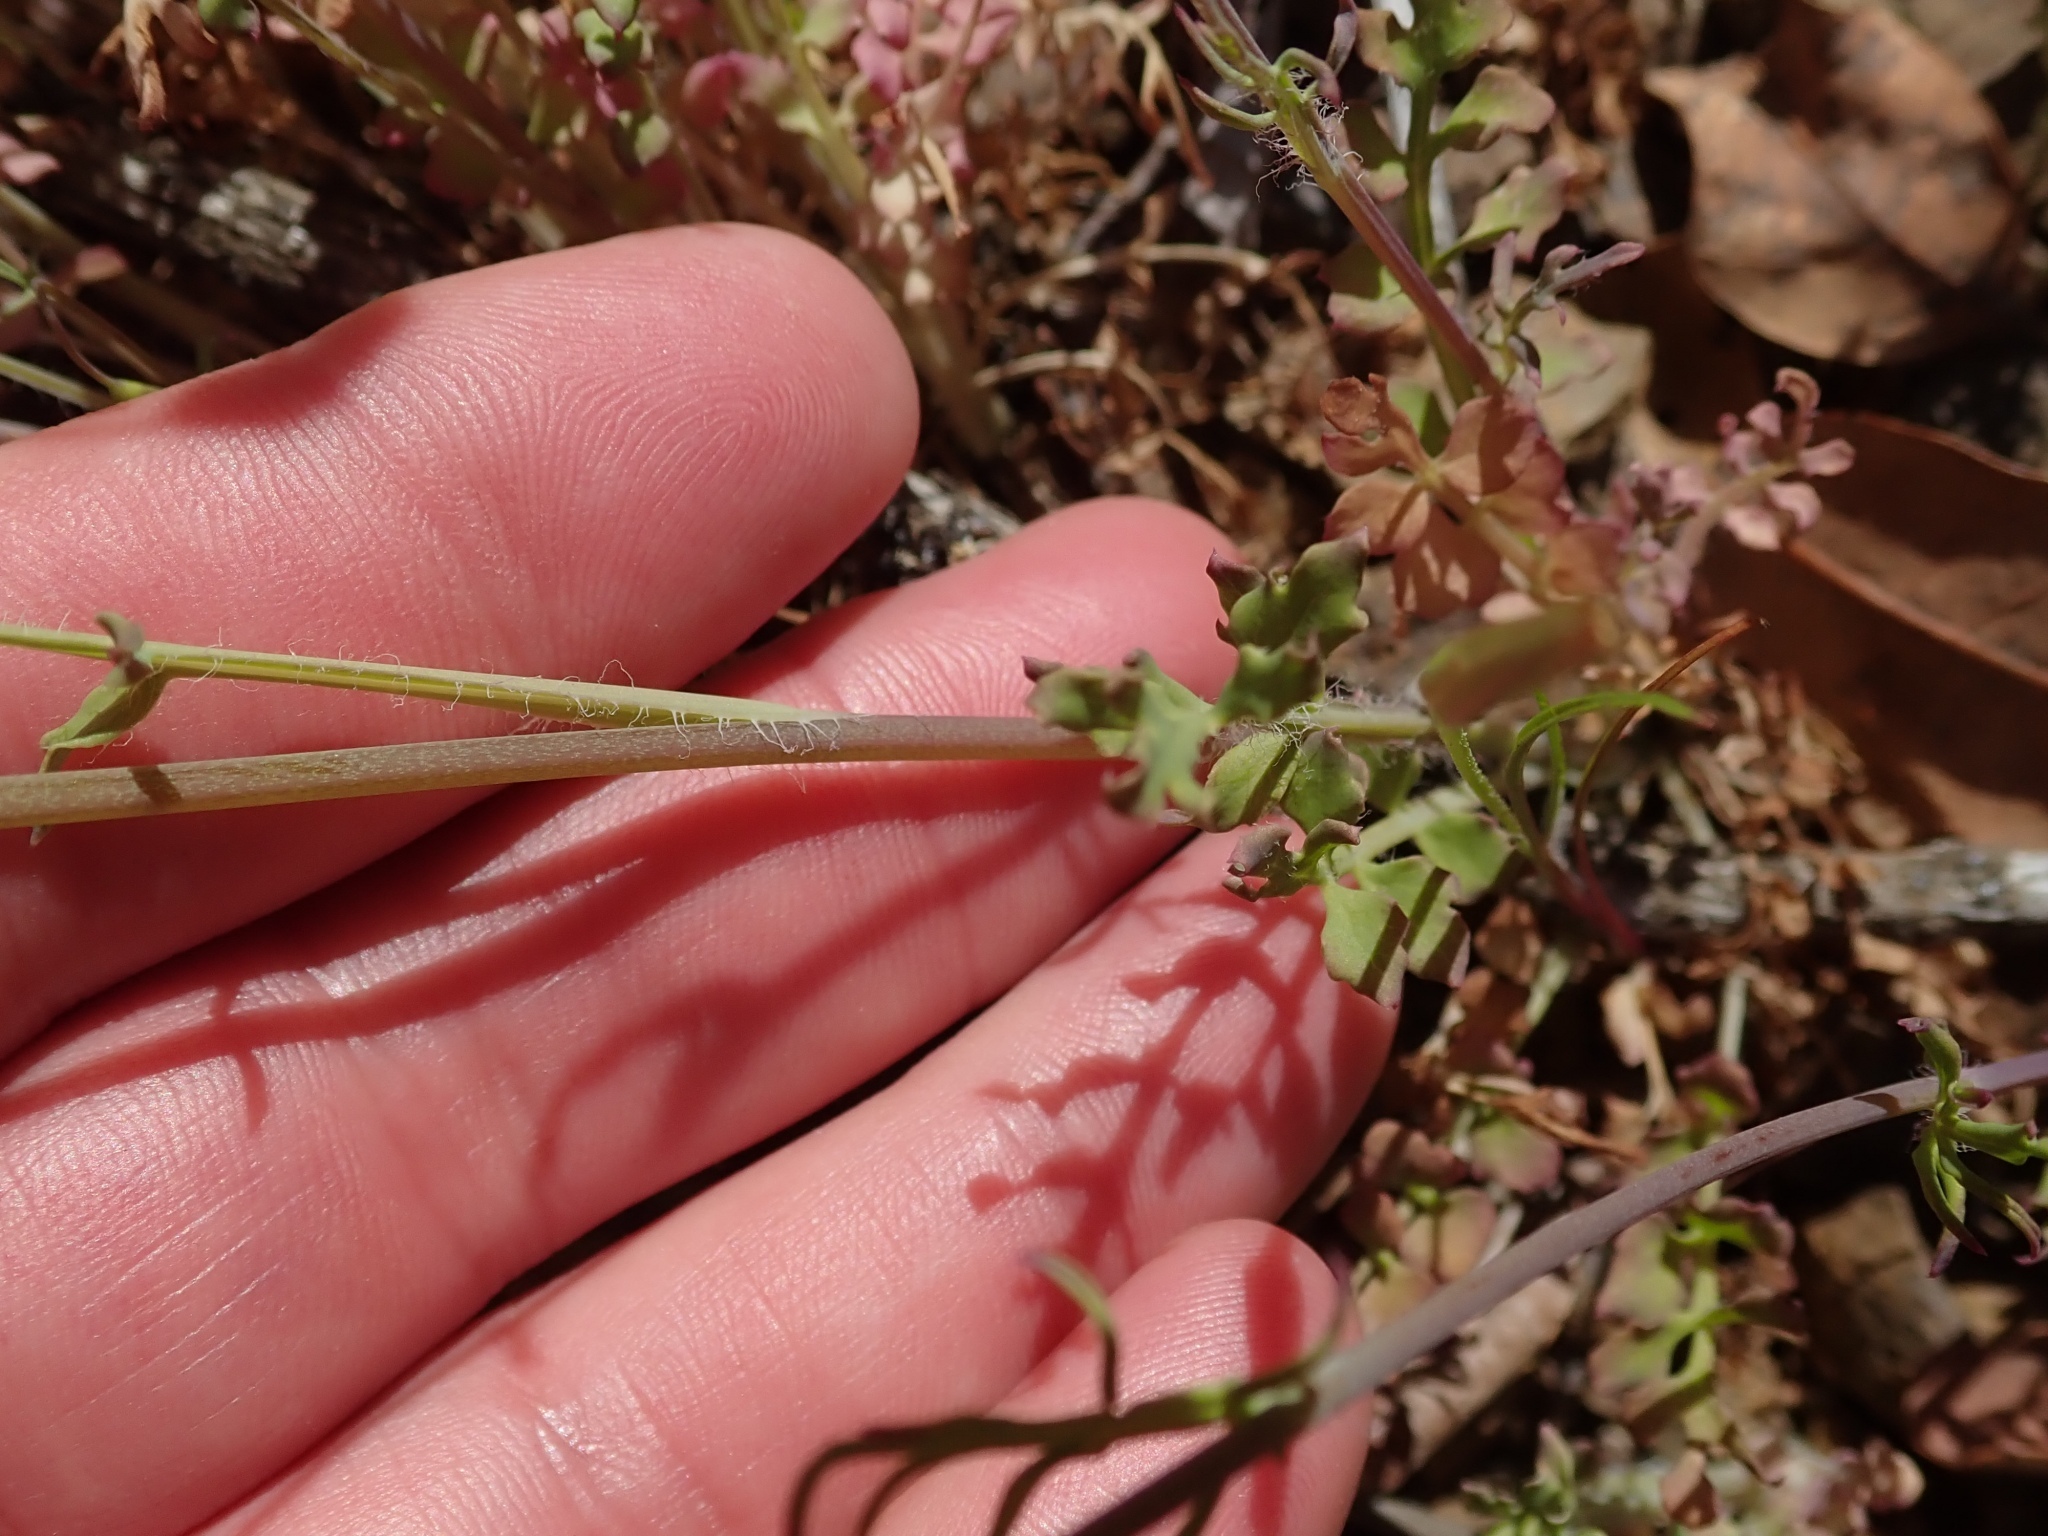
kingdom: Plantae
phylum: Tracheophyta
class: Magnoliopsida
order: Ranunculales
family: Papaveraceae
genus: Stylomecon
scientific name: Stylomecon heterophylla
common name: Flaming-poppy
